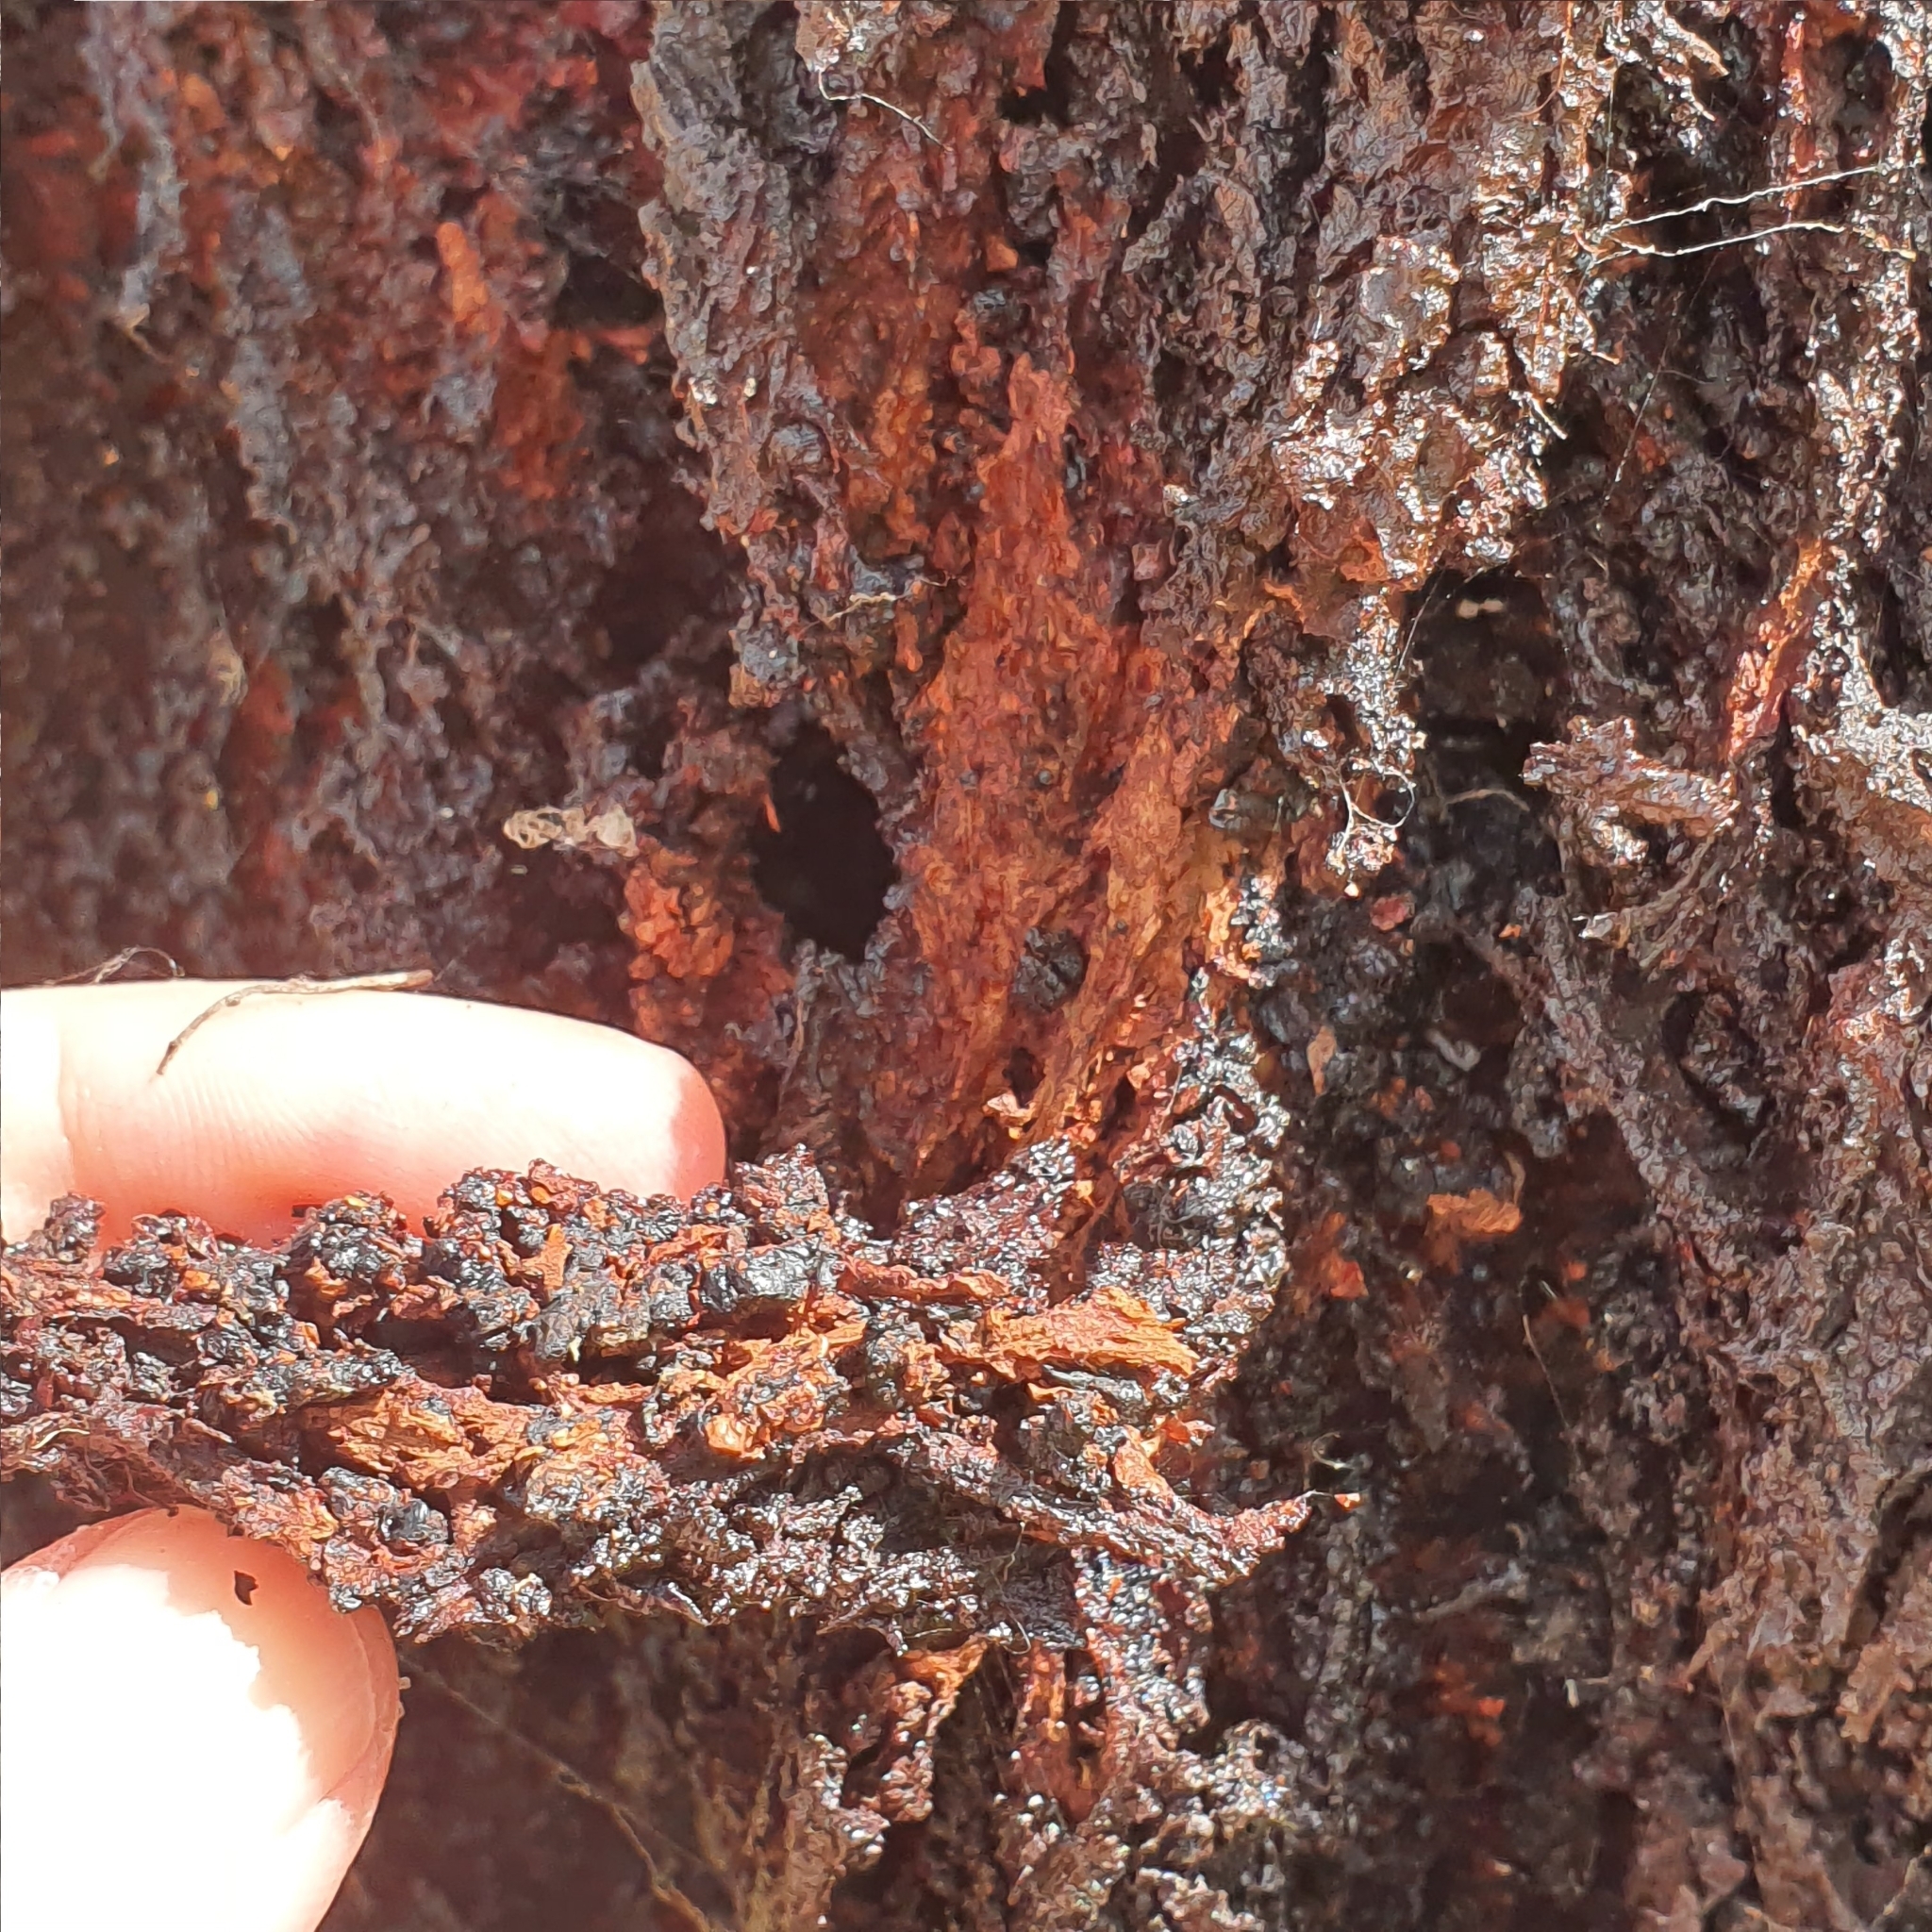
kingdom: Plantae
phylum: Tracheophyta
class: Magnoliopsida
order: Myrtales
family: Myrtaceae
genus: Eucalyptus
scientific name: Eucalyptus crebra
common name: Narrowleaf red ironbark
